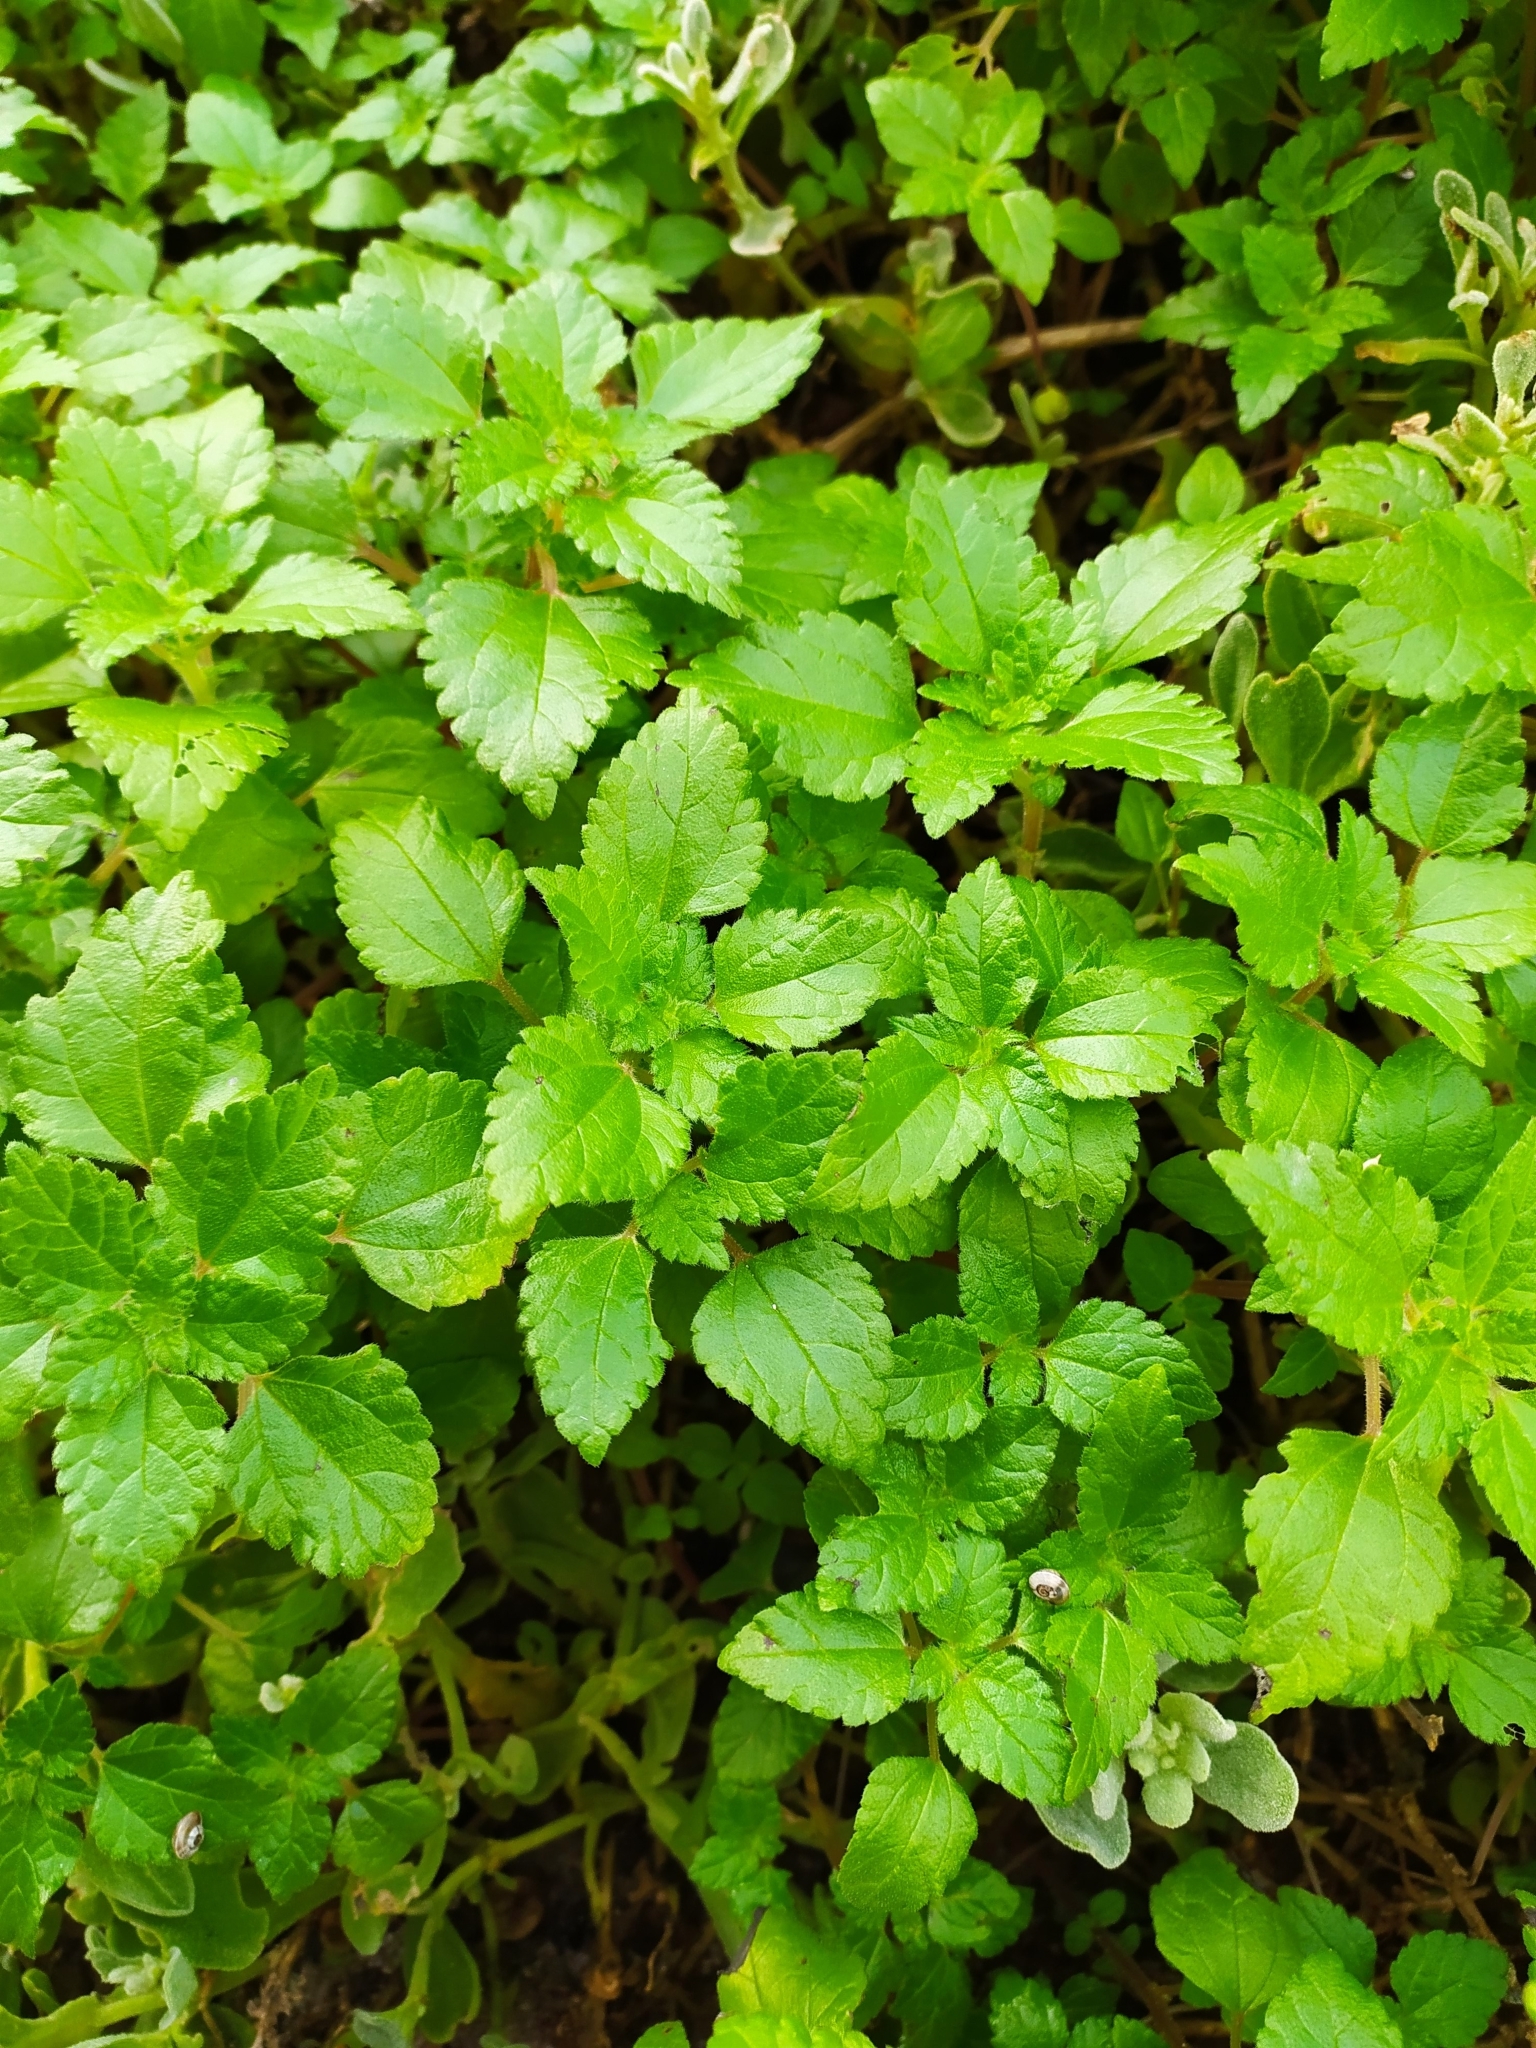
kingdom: Plantae
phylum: Tracheophyta
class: Magnoliopsida
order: Rosales
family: Urticaceae
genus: Didymodoxa
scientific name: Didymodoxa capensis
